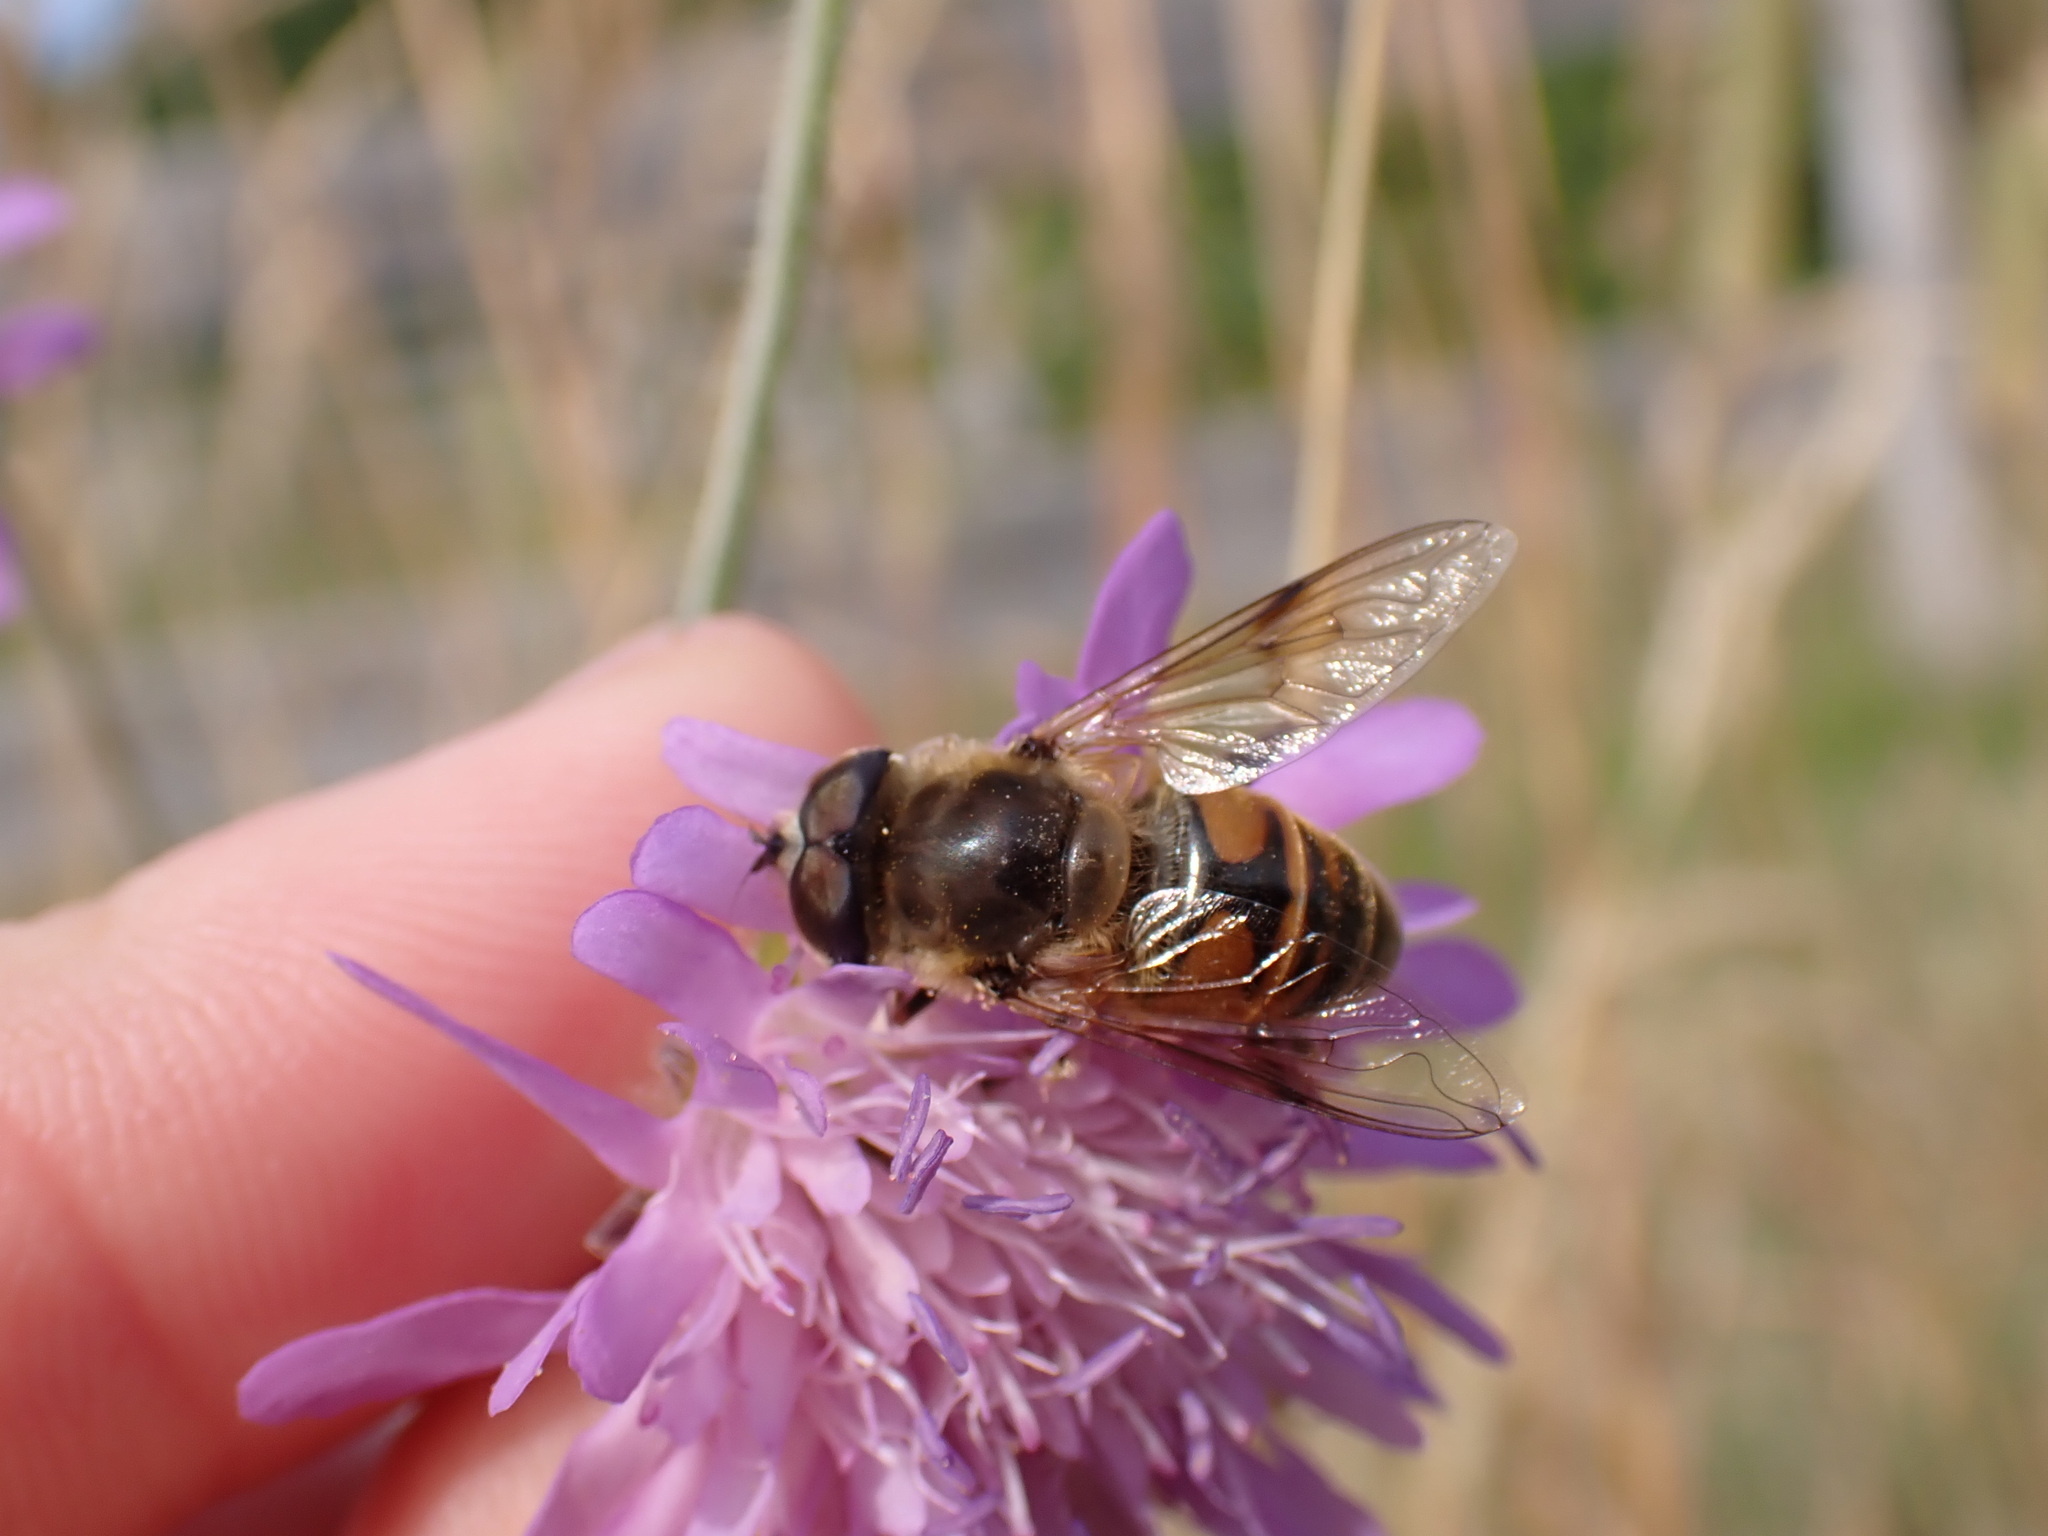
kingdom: Animalia
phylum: Arthropoda
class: Insecta
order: Diptera
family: Syrphidae
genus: Eristalis
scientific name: Eristalis tenax
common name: Drone fly
